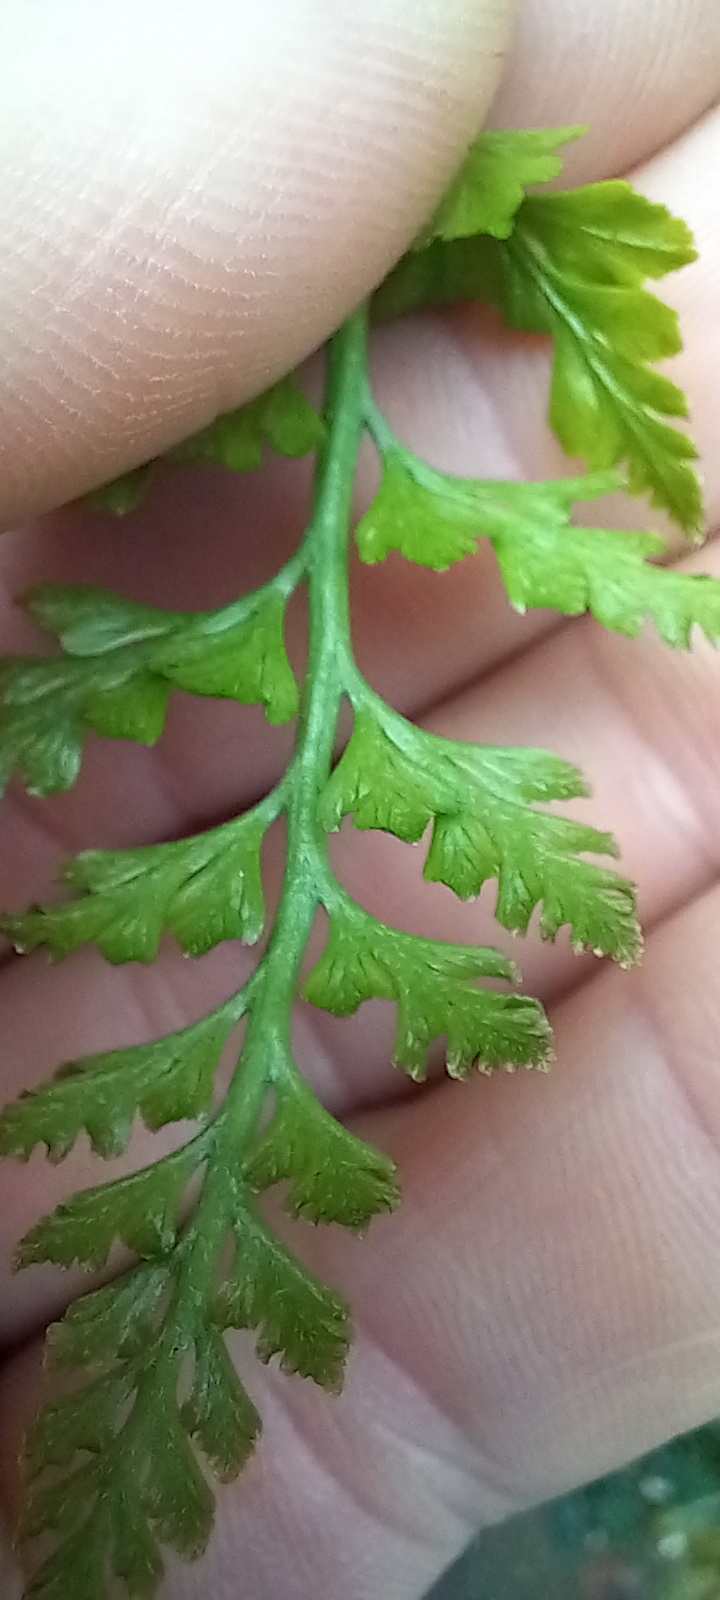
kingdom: Plantae
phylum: Tracheophyta
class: Polypodiopsida
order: Polypodiales
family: Aspleniaceae
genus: Asplenium
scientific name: Asplenium adiantum-nigrum
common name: Black spleenwort
